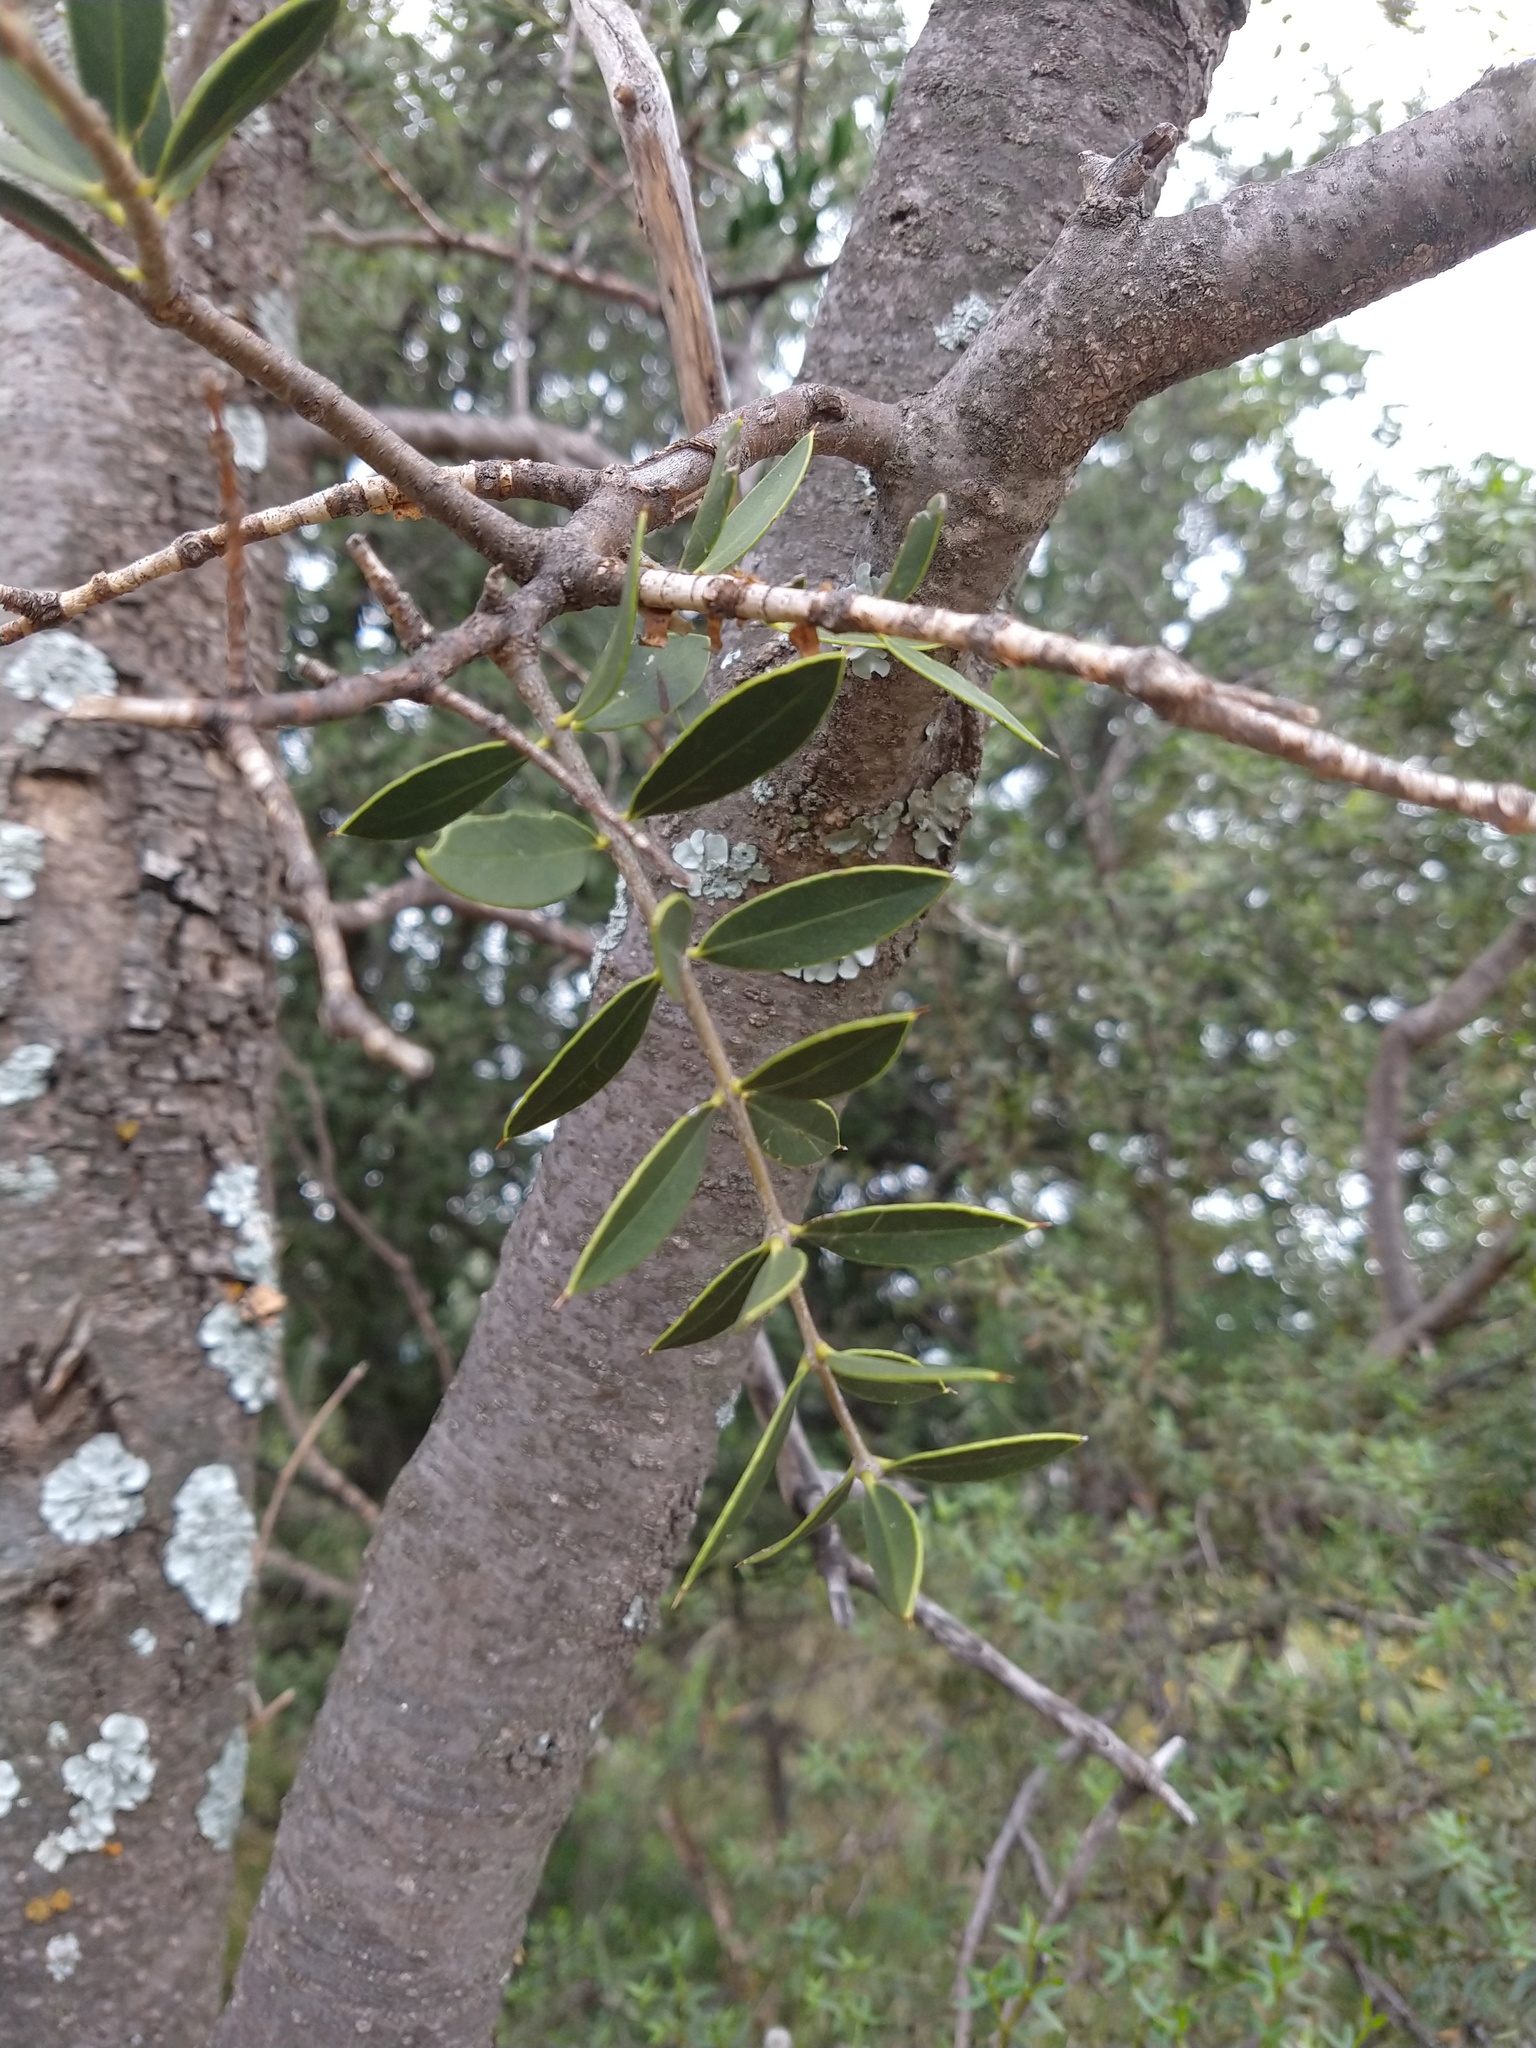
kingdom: Plantae
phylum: Tracheophyta
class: Magnoliopsida
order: Gentianales
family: Apocynaceae
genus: Aspidosperma
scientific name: Aspidosperma quebracho-blanco
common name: White quebracho
